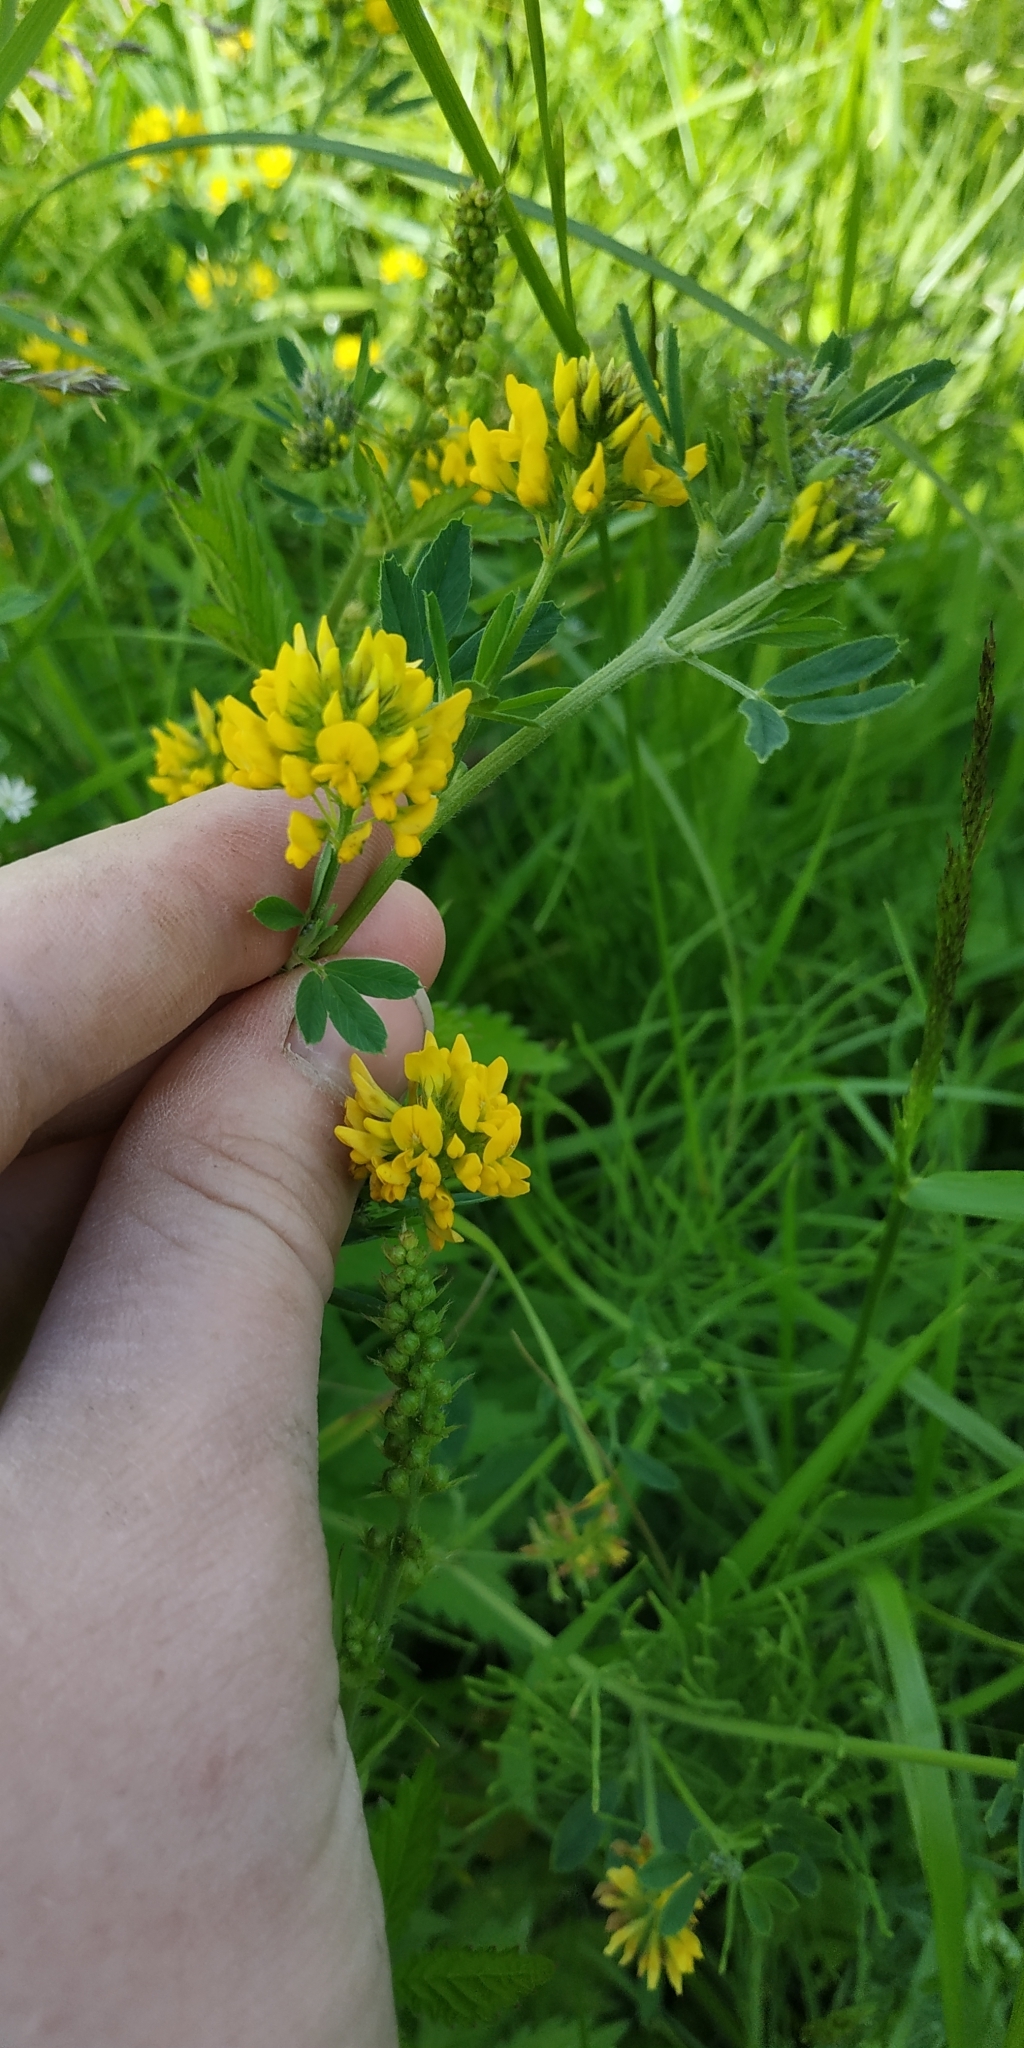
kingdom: Plantae
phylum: Tracheophyta
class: Magnoliopsida
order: Fabales
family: Fabaceae
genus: Medicago
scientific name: Medicago falcata
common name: Sickle medick
